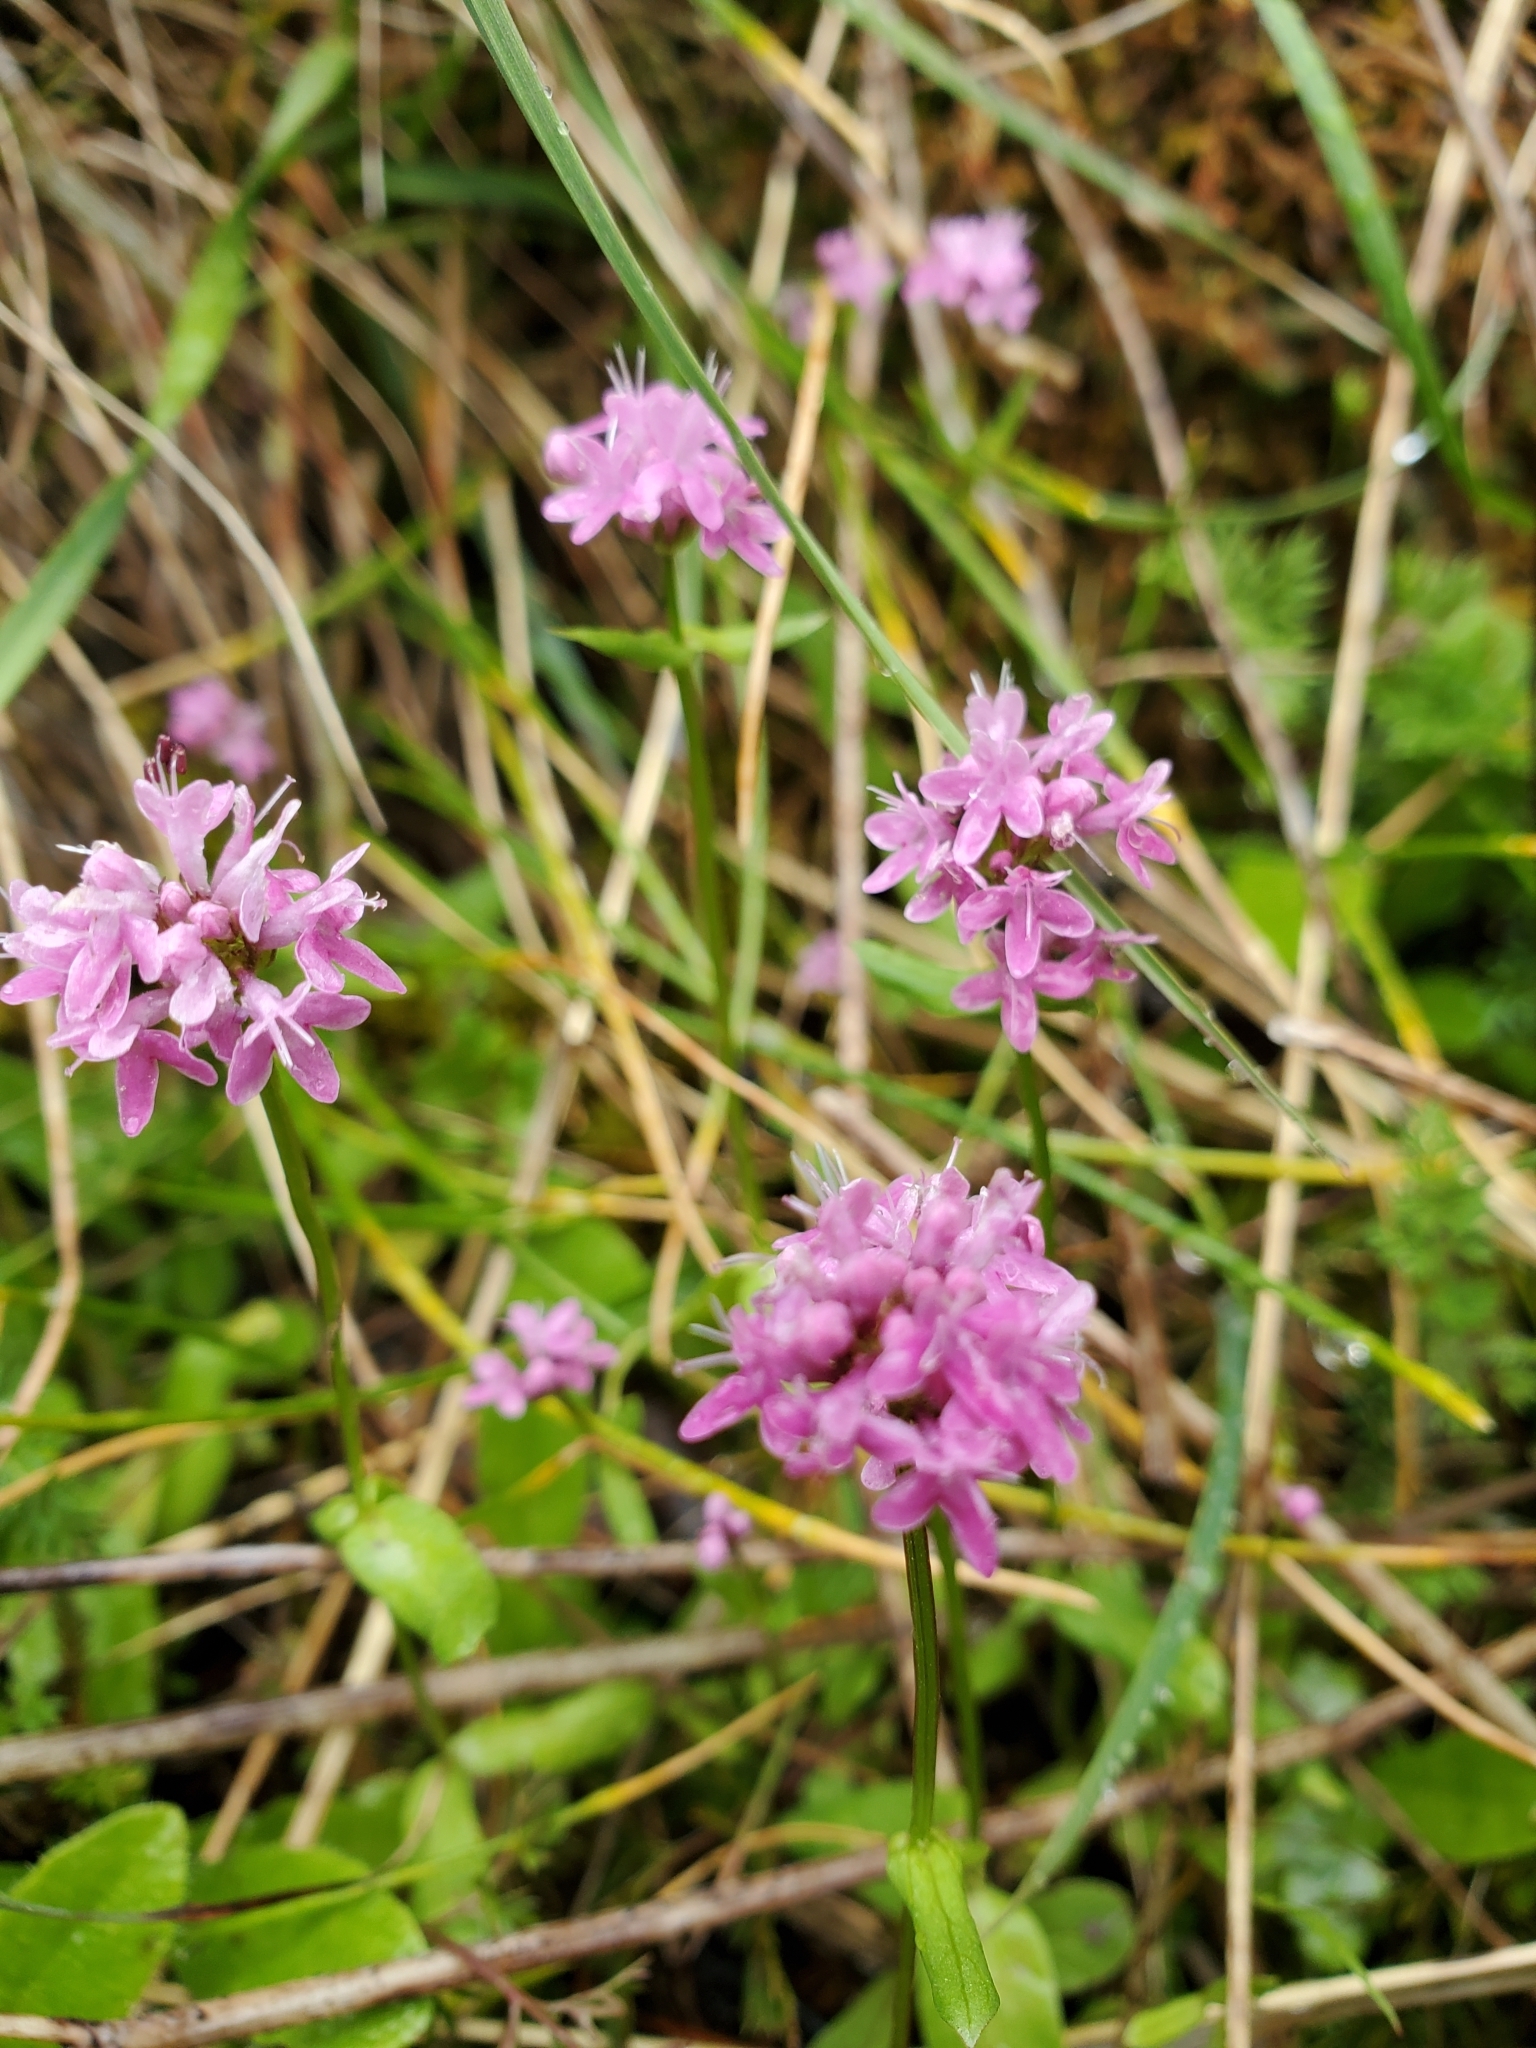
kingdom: Plantae
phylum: Tracheophyta
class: Magnoliopsida
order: Dipsacales
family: Caprifoliaceae
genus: Plectritis
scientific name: Plectritis congesta
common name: Pink plectritis
